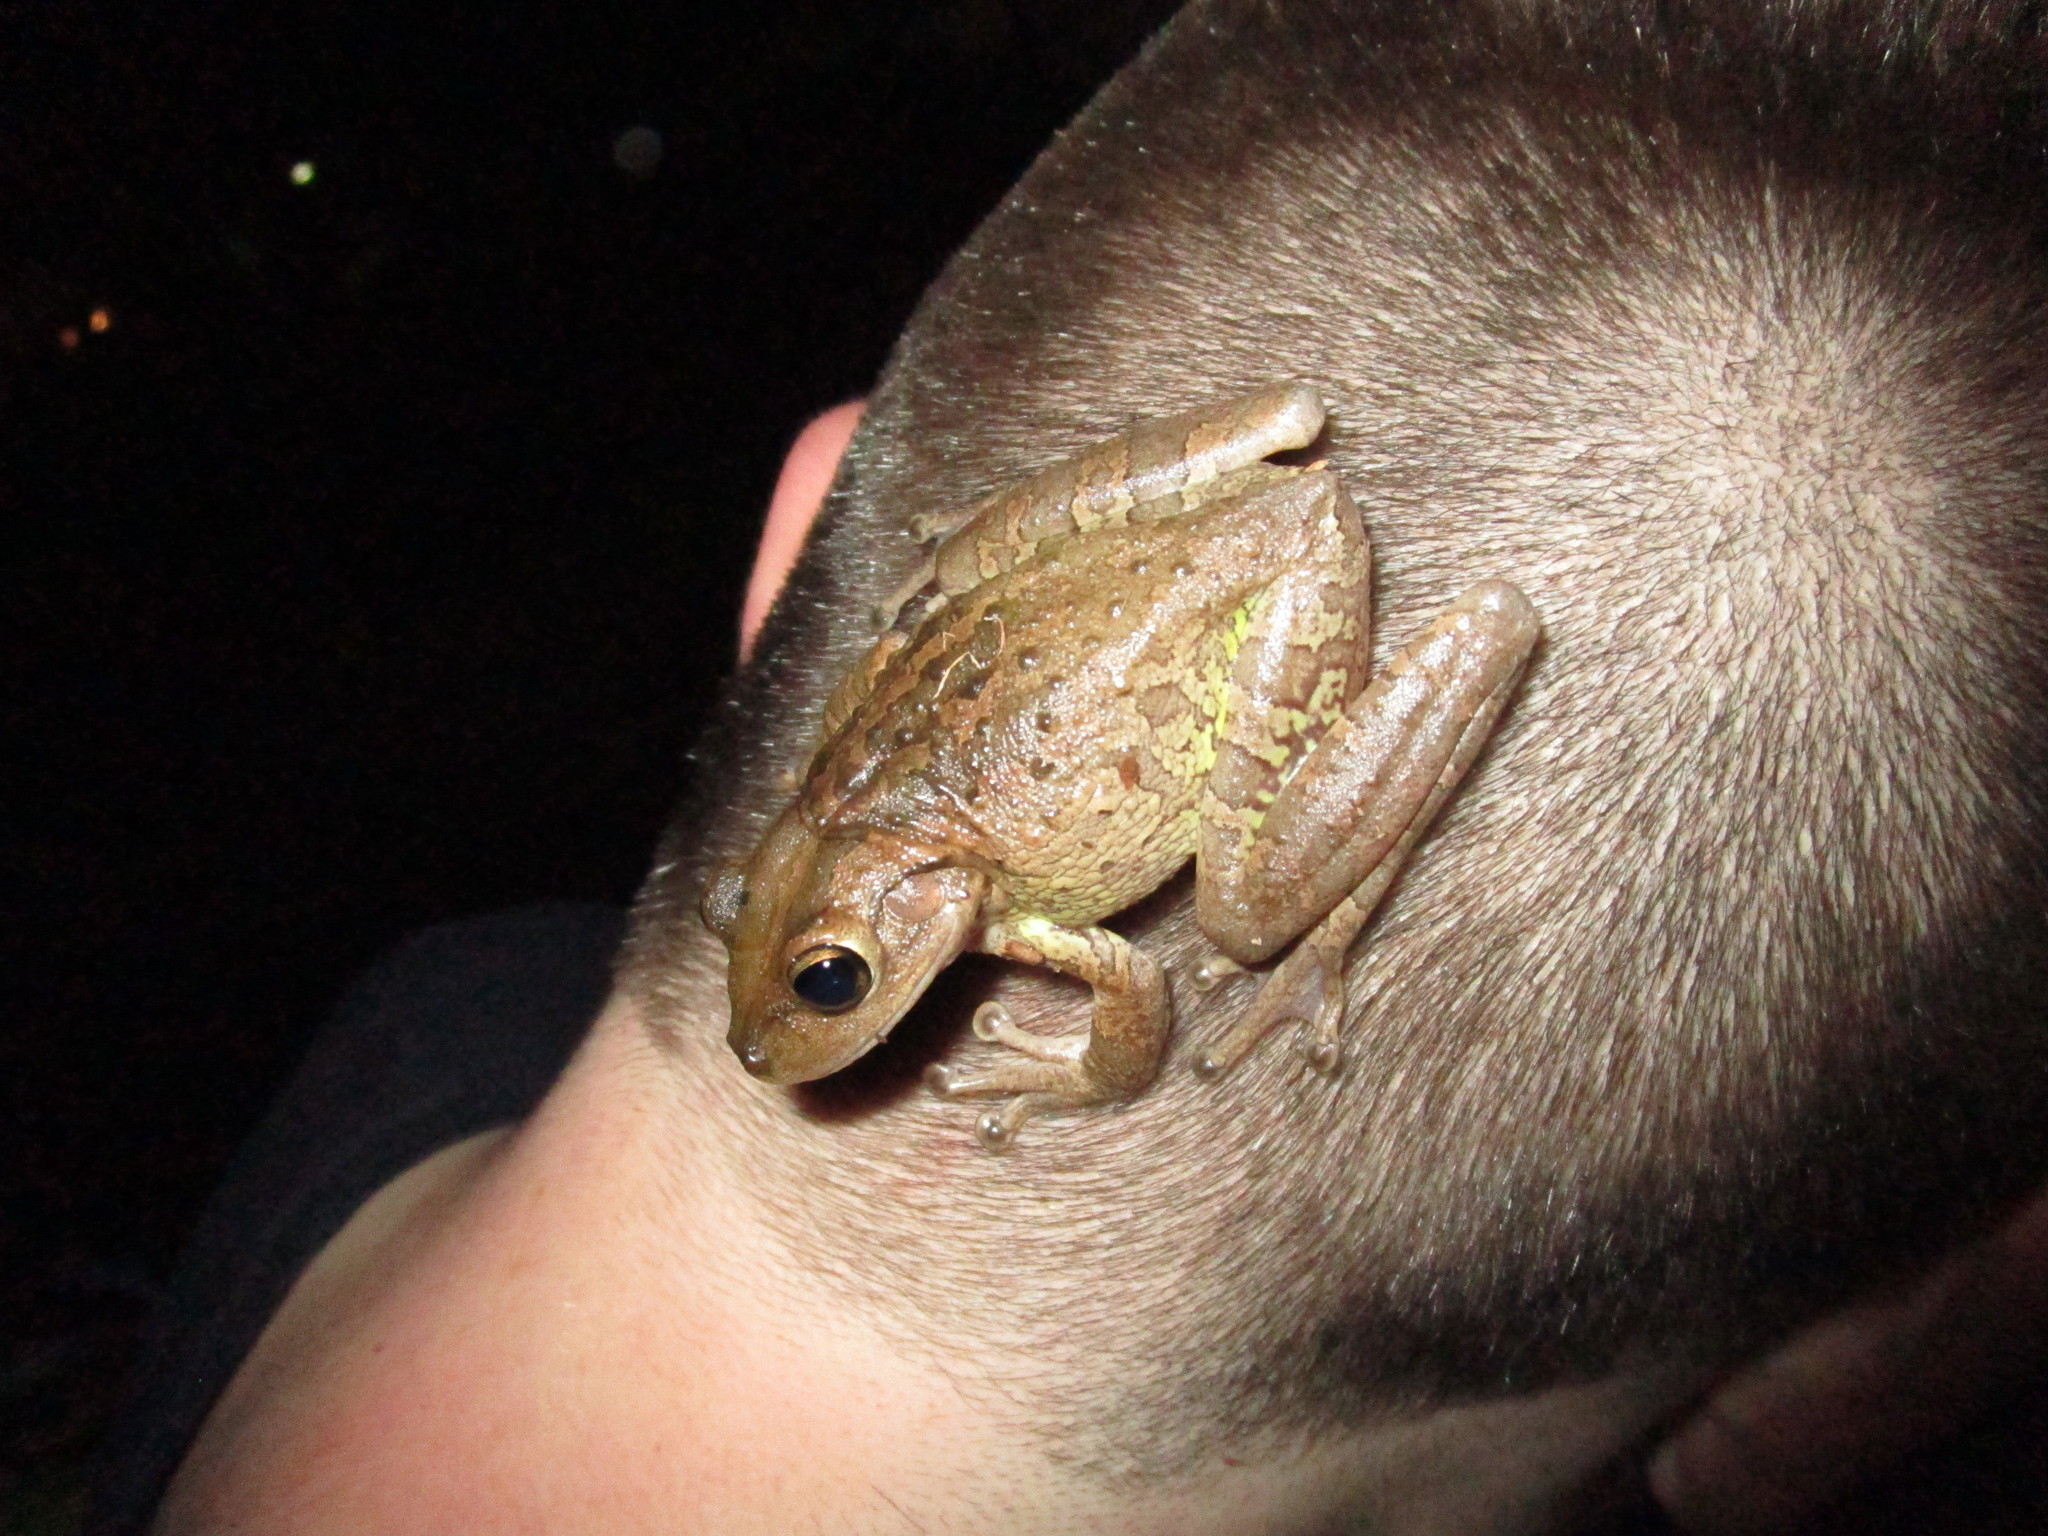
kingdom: Animalia
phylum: Chordata
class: Amphibia
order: Anura
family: Hylidae
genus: Osteopilus
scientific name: Osteopilus septentrionalis
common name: Cuban treefrog
